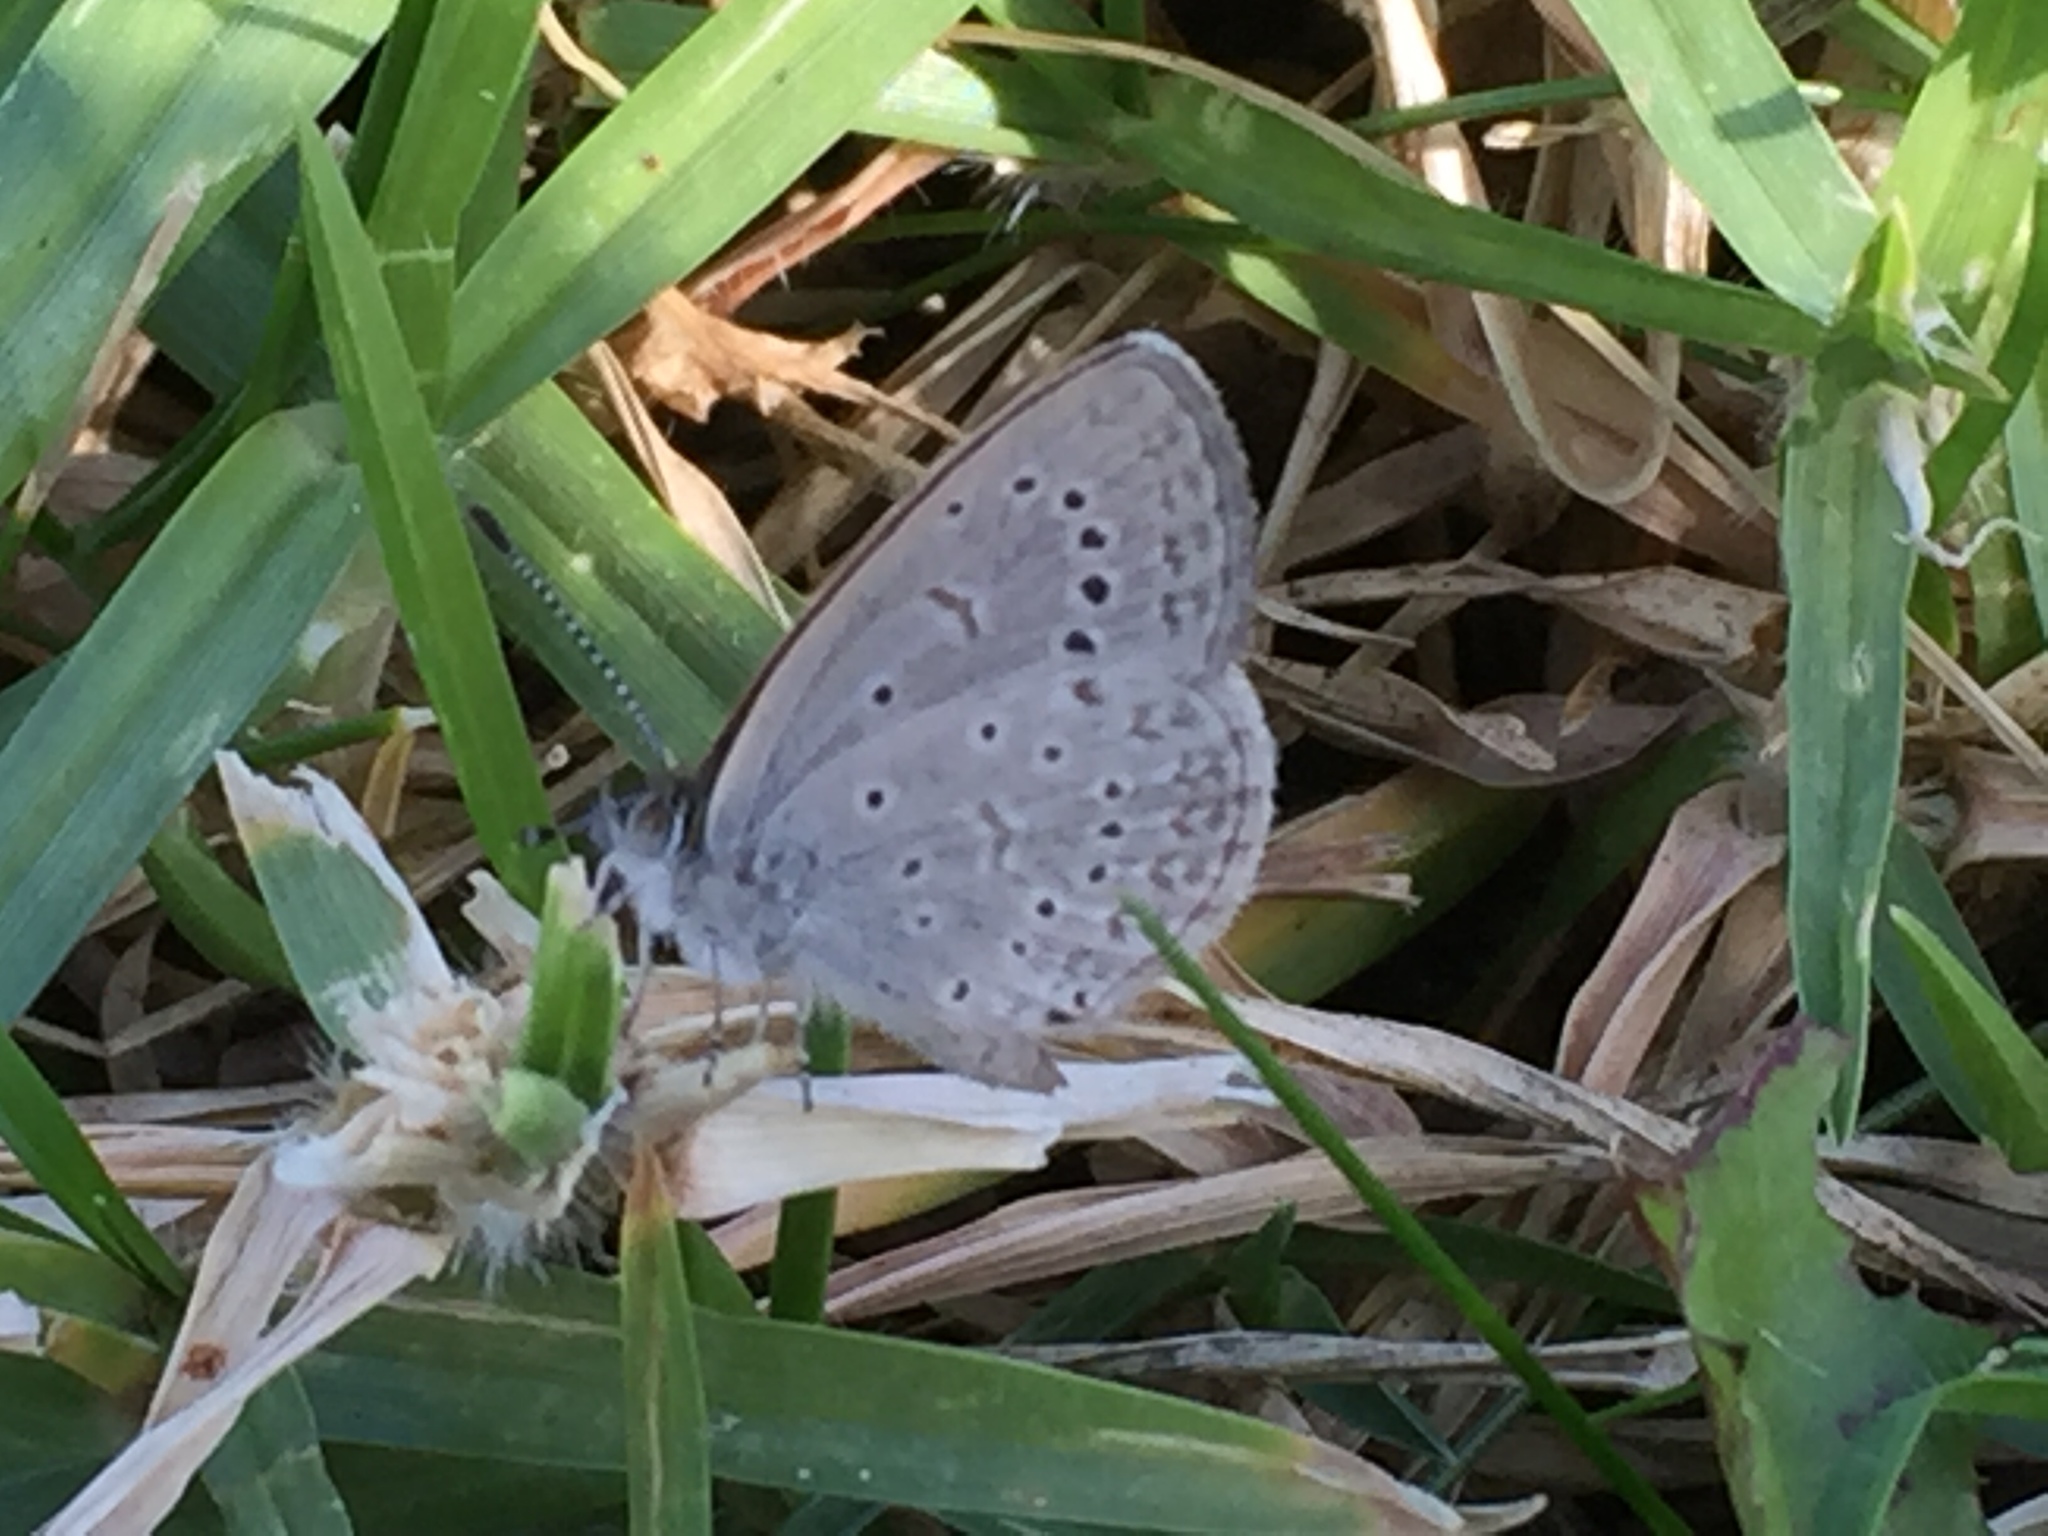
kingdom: Animalia
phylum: Arthropoda
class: Insecta
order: Lepidoptera
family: Lycaenidae
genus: Zizeeria
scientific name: Zizeeria knysna
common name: African grass blue
